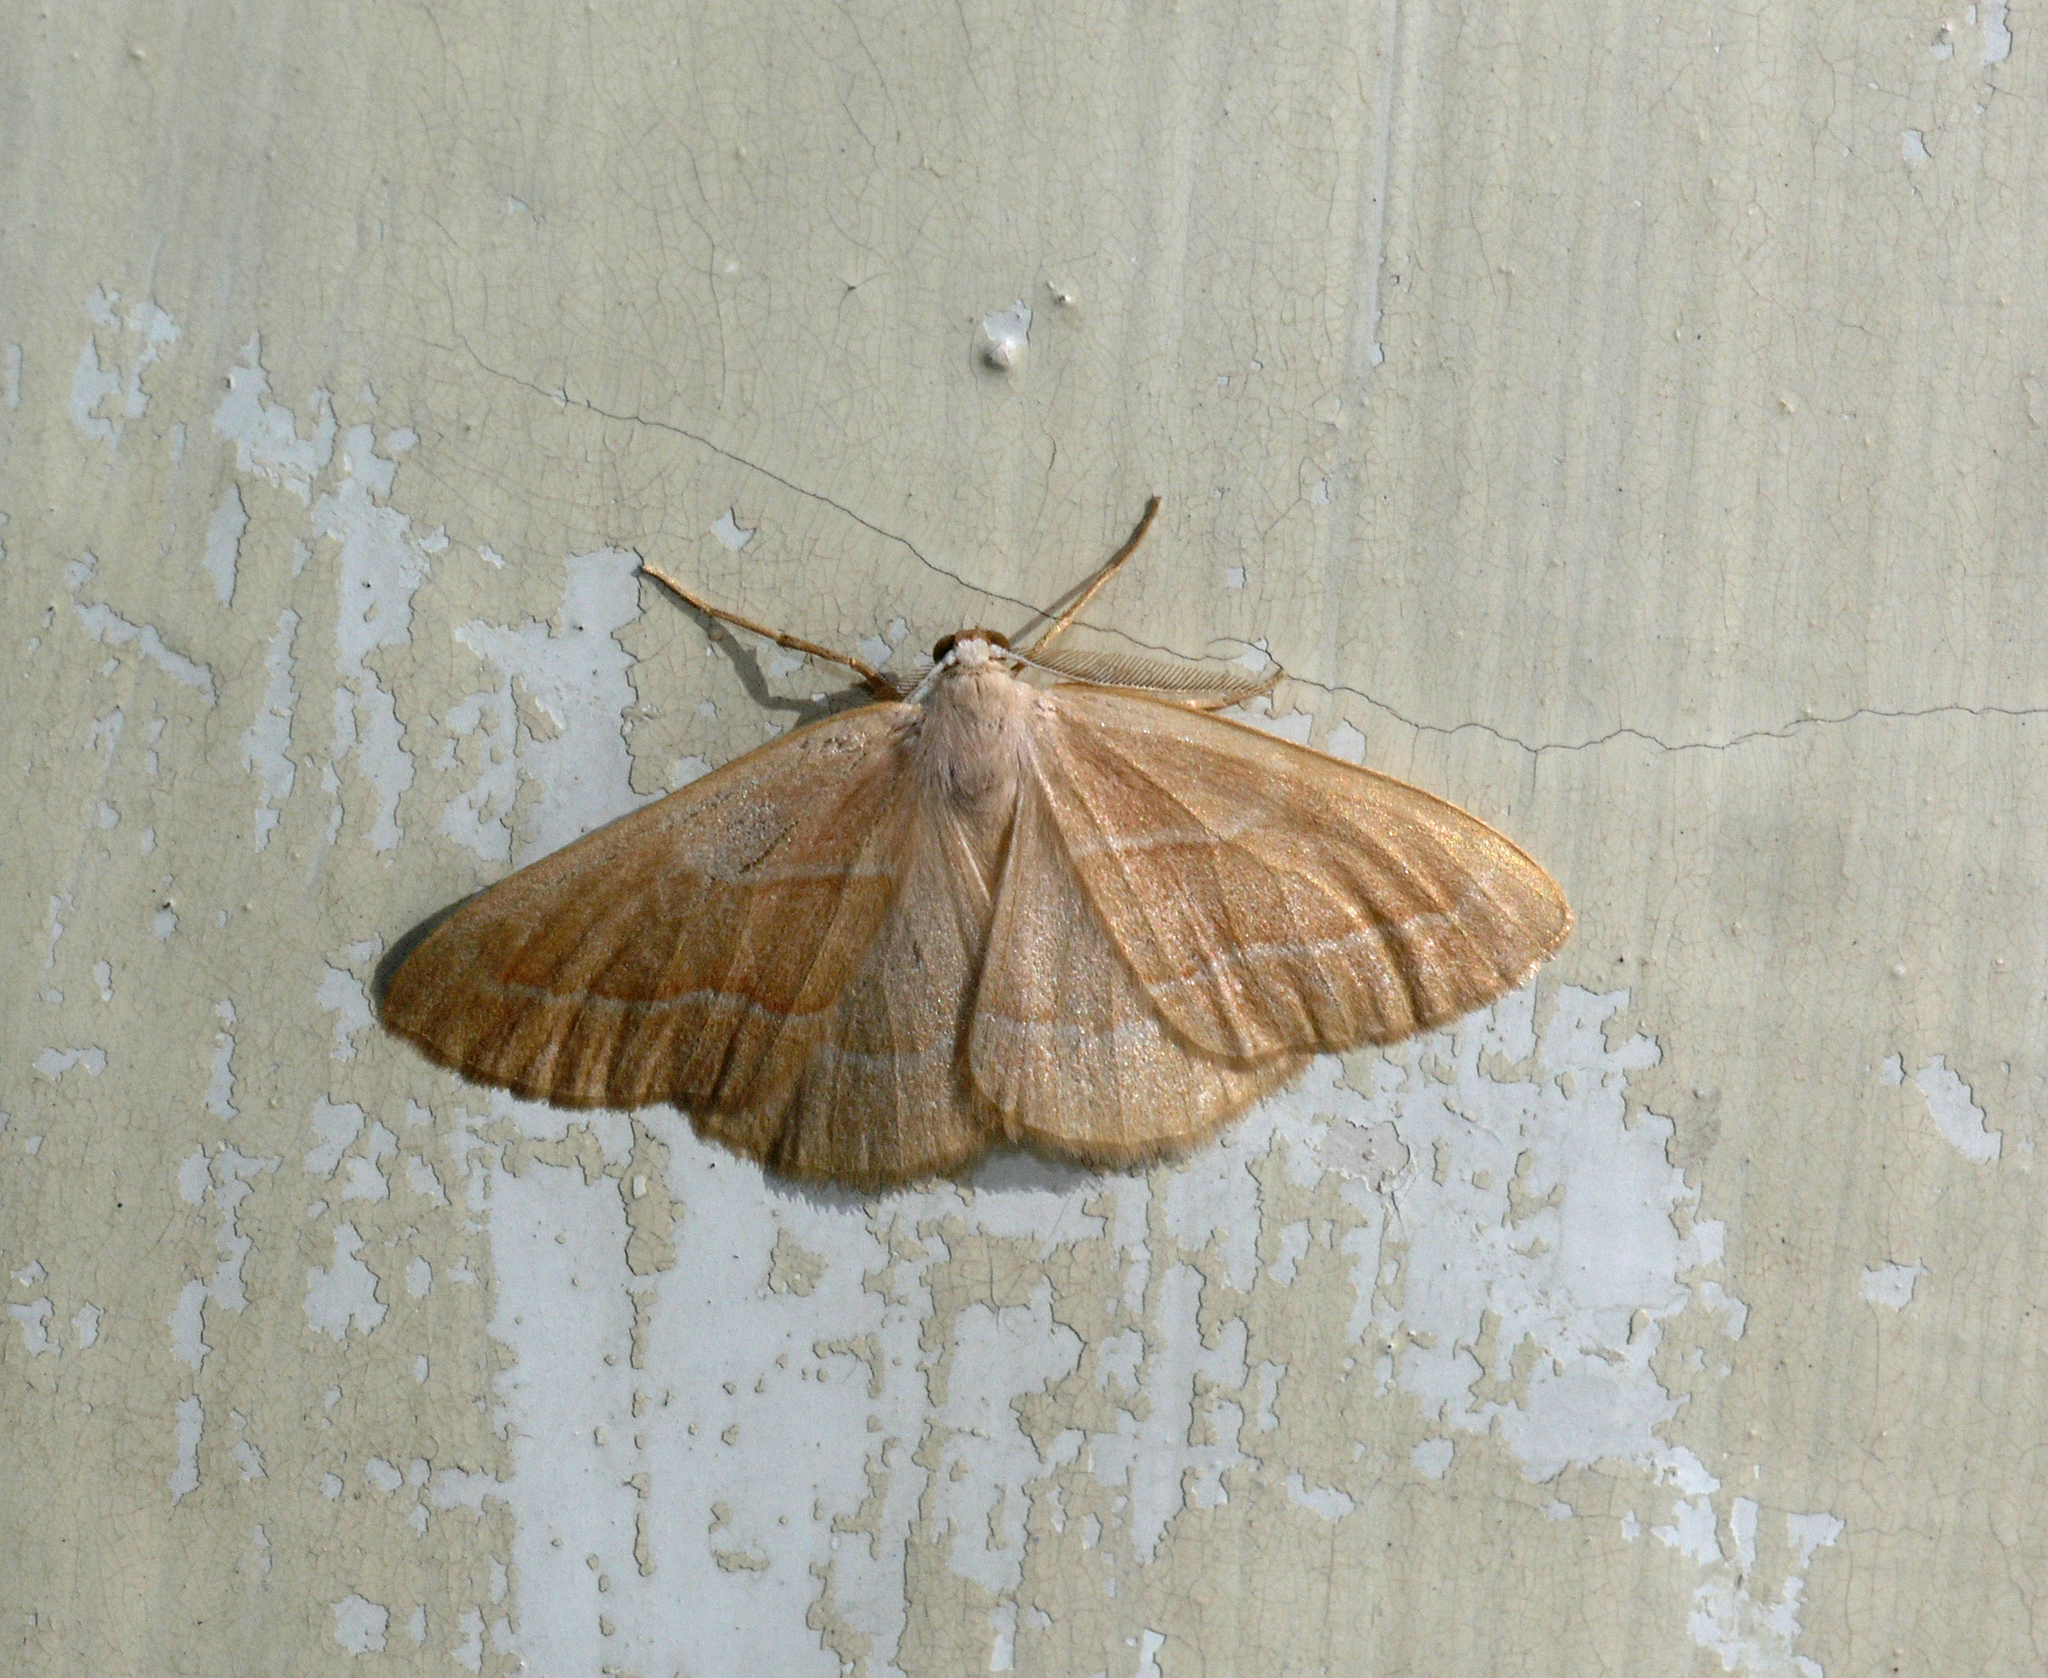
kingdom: Animalia
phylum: Arthropoda
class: Insecta
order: Lepidoptera
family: Geometridae
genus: Hylaea
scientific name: Hylaea fasciaria
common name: Barred red
